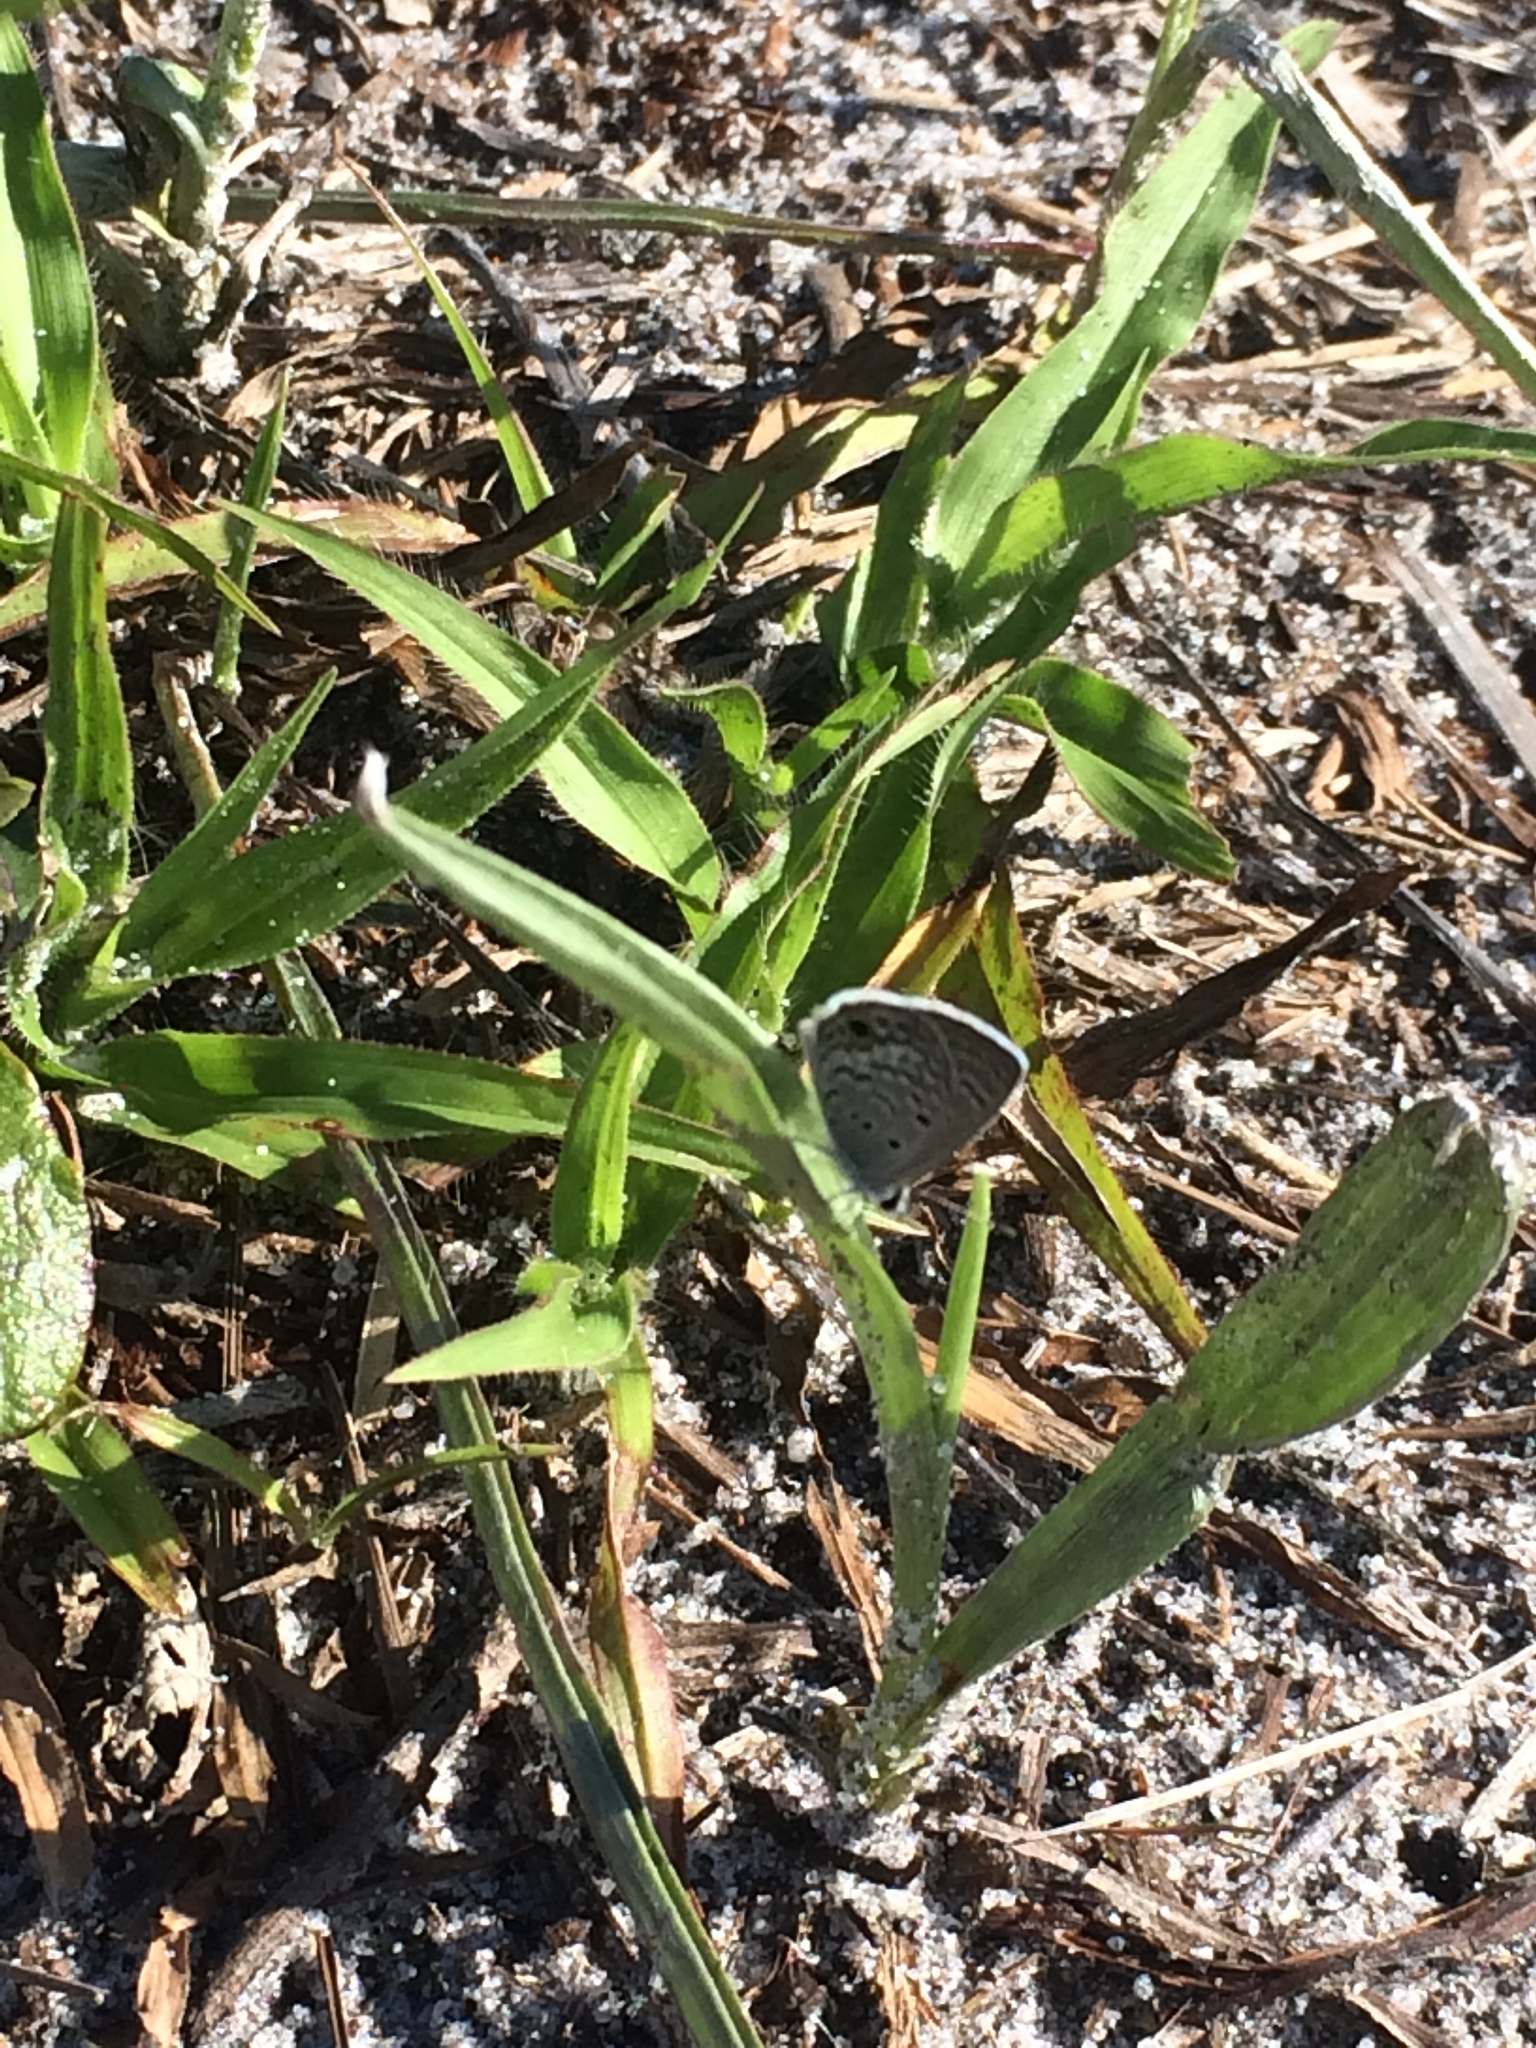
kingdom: Animalia
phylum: Arthropoda
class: Insecta
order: Lepidoptera
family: Lycaenidae
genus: Hemiargus
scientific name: Hemiargus ceraunus
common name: Ceraunus blue
